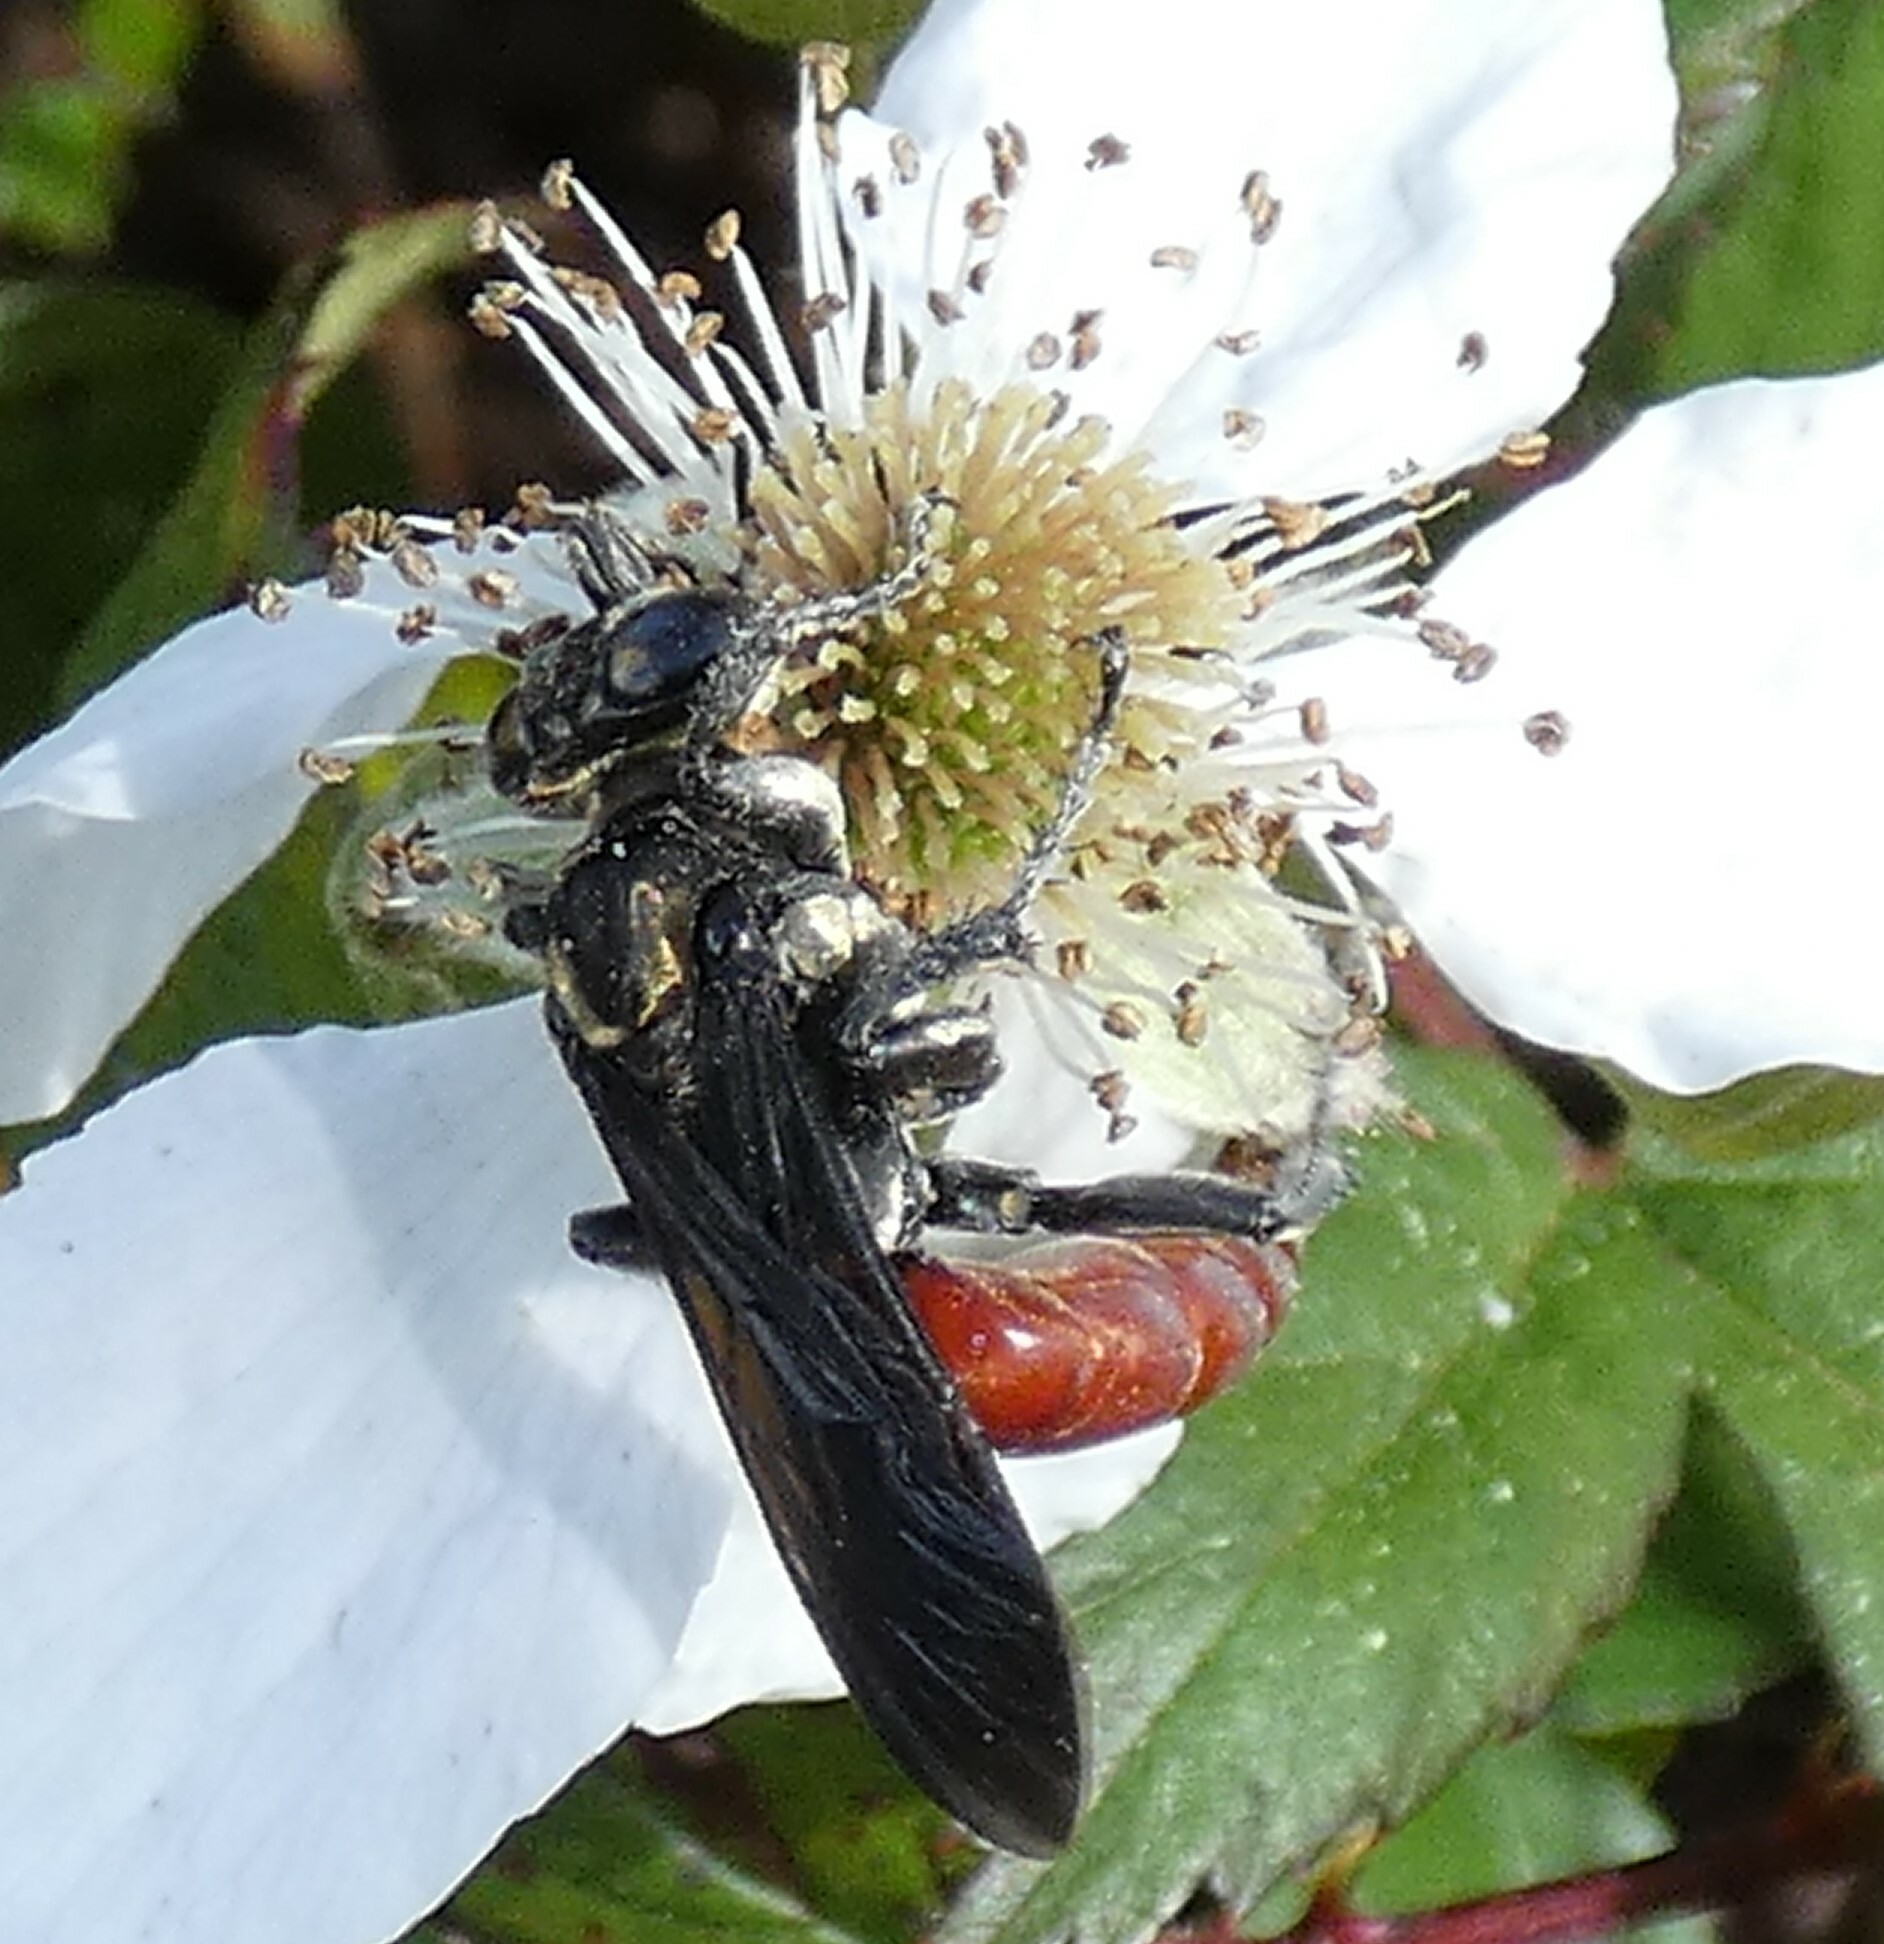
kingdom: Animalia
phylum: Arthropoda
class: Insecta
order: Hymenoptera
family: Crabronidae
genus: Larra
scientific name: Larra bicolor
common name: Wasp
